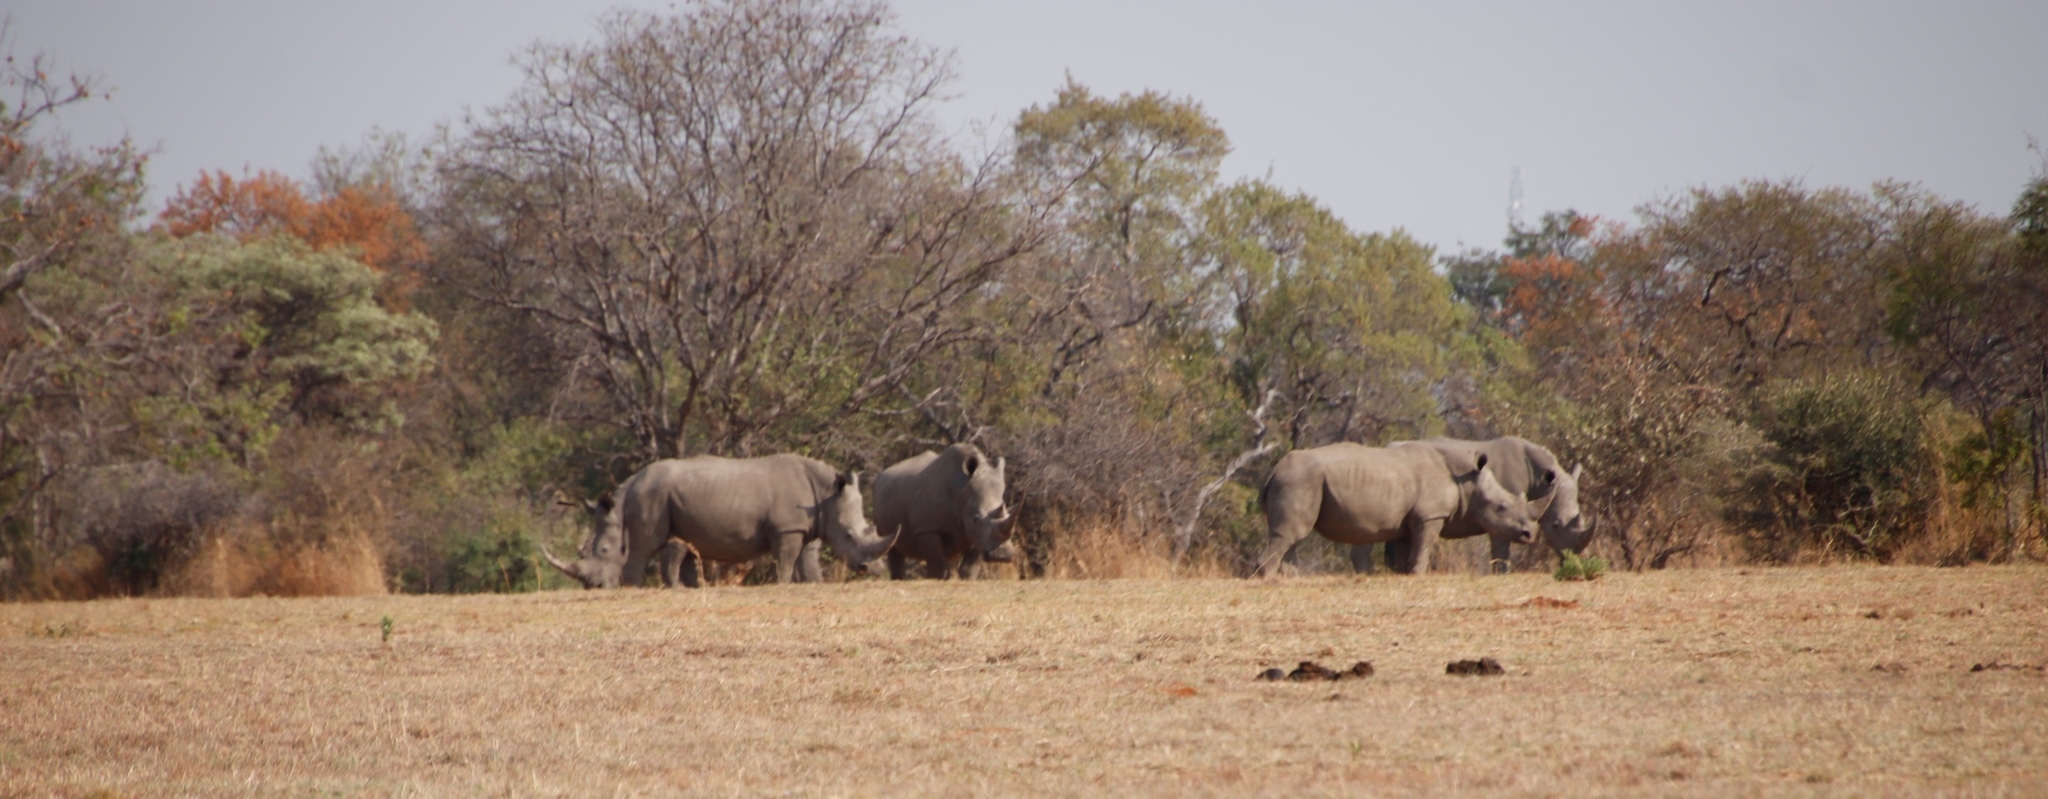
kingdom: Animalia
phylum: Chordata
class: Mammalia
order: Perissodactyla
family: Rhinocerotidae
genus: Ceratotherium
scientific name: Ceratotherium simum
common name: White rhinoceros
